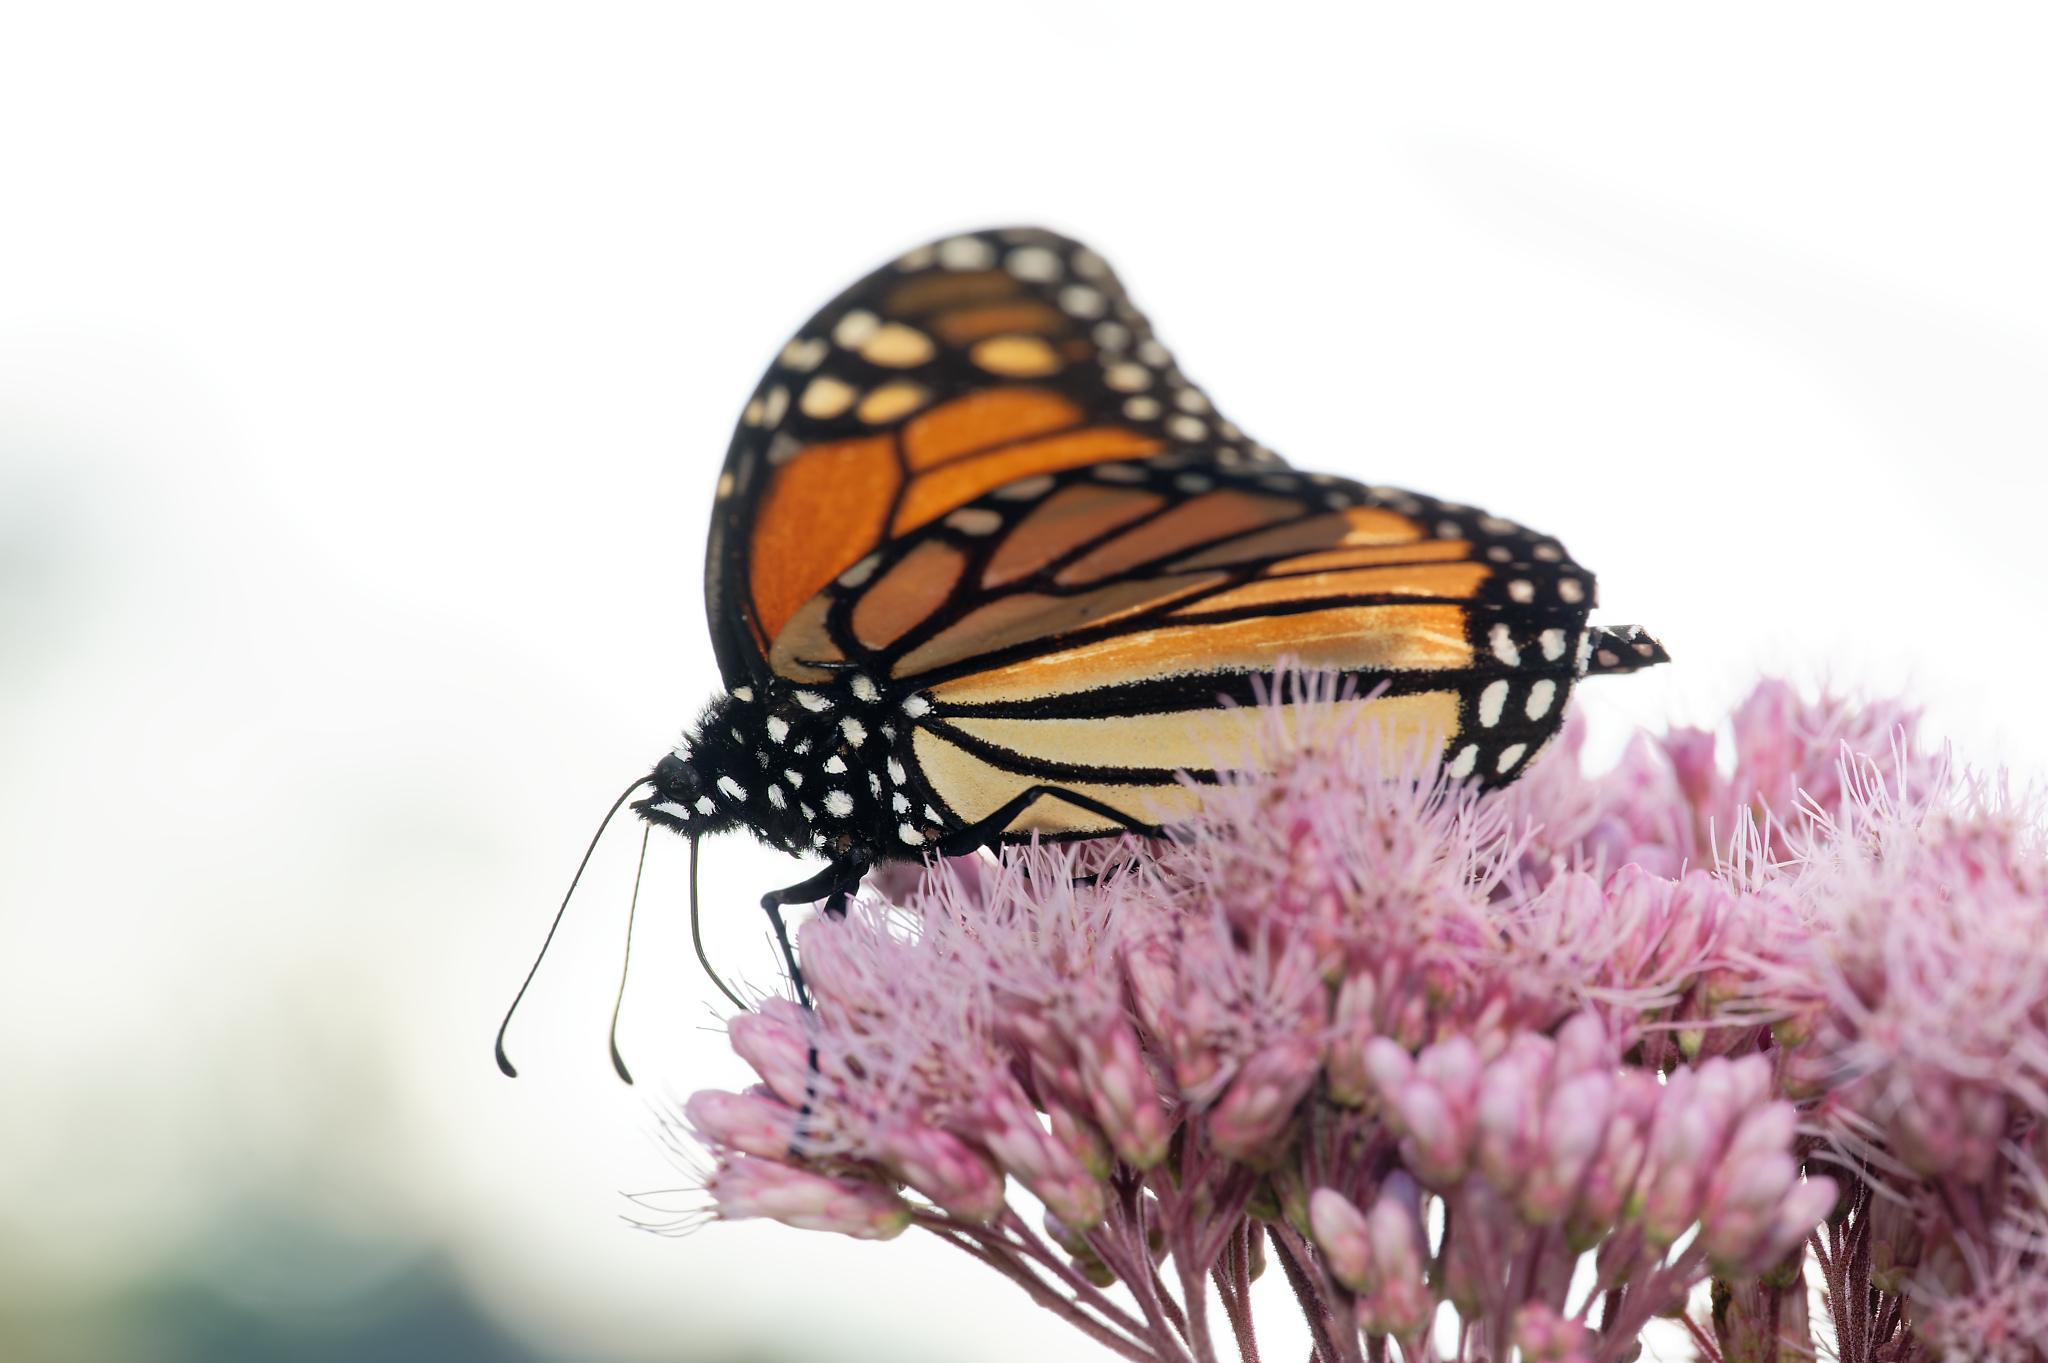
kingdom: Animalia
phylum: Arthropoda
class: Insecta
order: Lepidoptera
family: Nymphalidae
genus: Danaus
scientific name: Danaus plexippus
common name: Monarch
